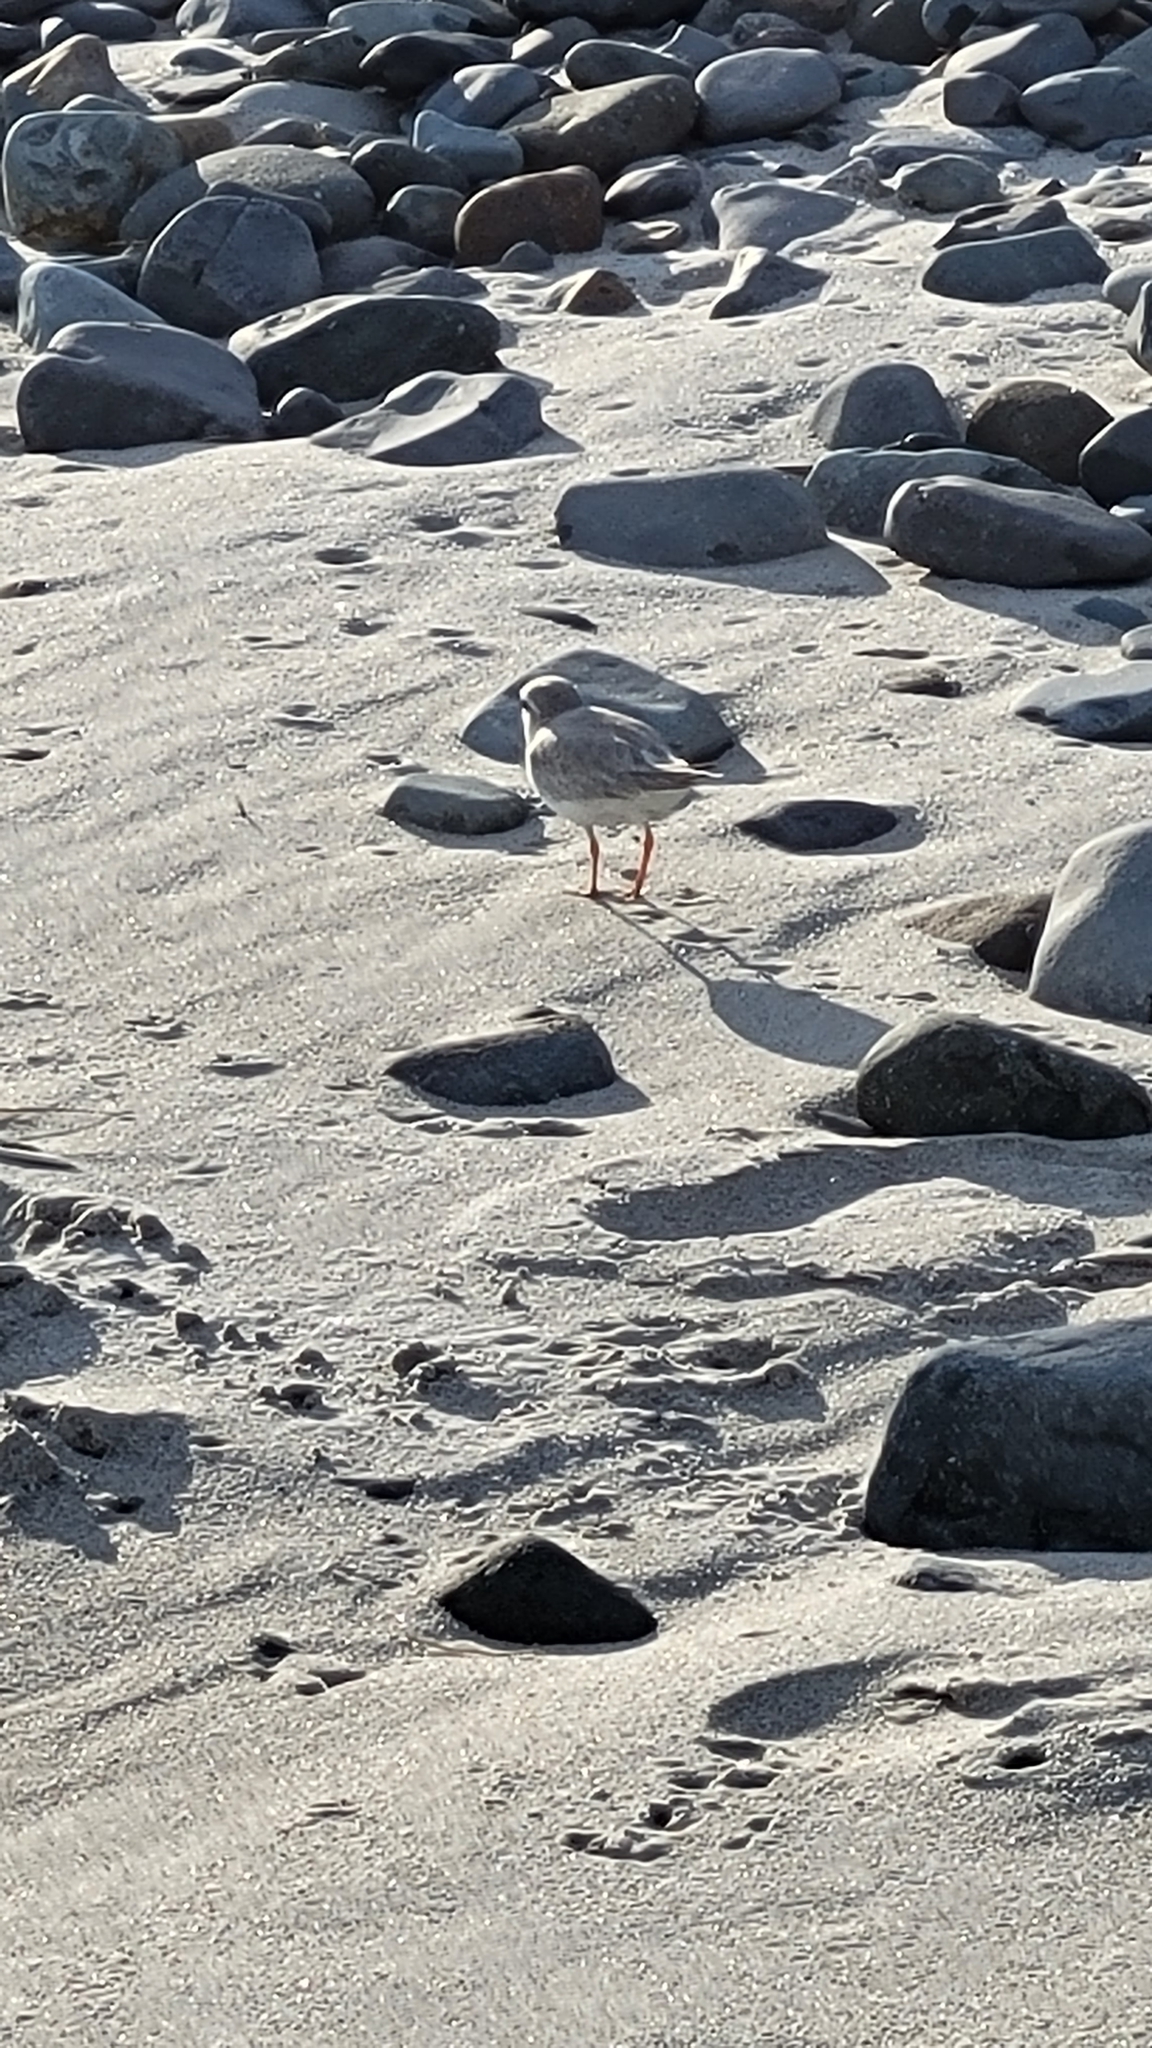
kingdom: Animalia
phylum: Chordata
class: Aves
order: Charadriiformes
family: Charadriidae
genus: Charadrius
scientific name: Charadrius melodus
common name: Piping plover
